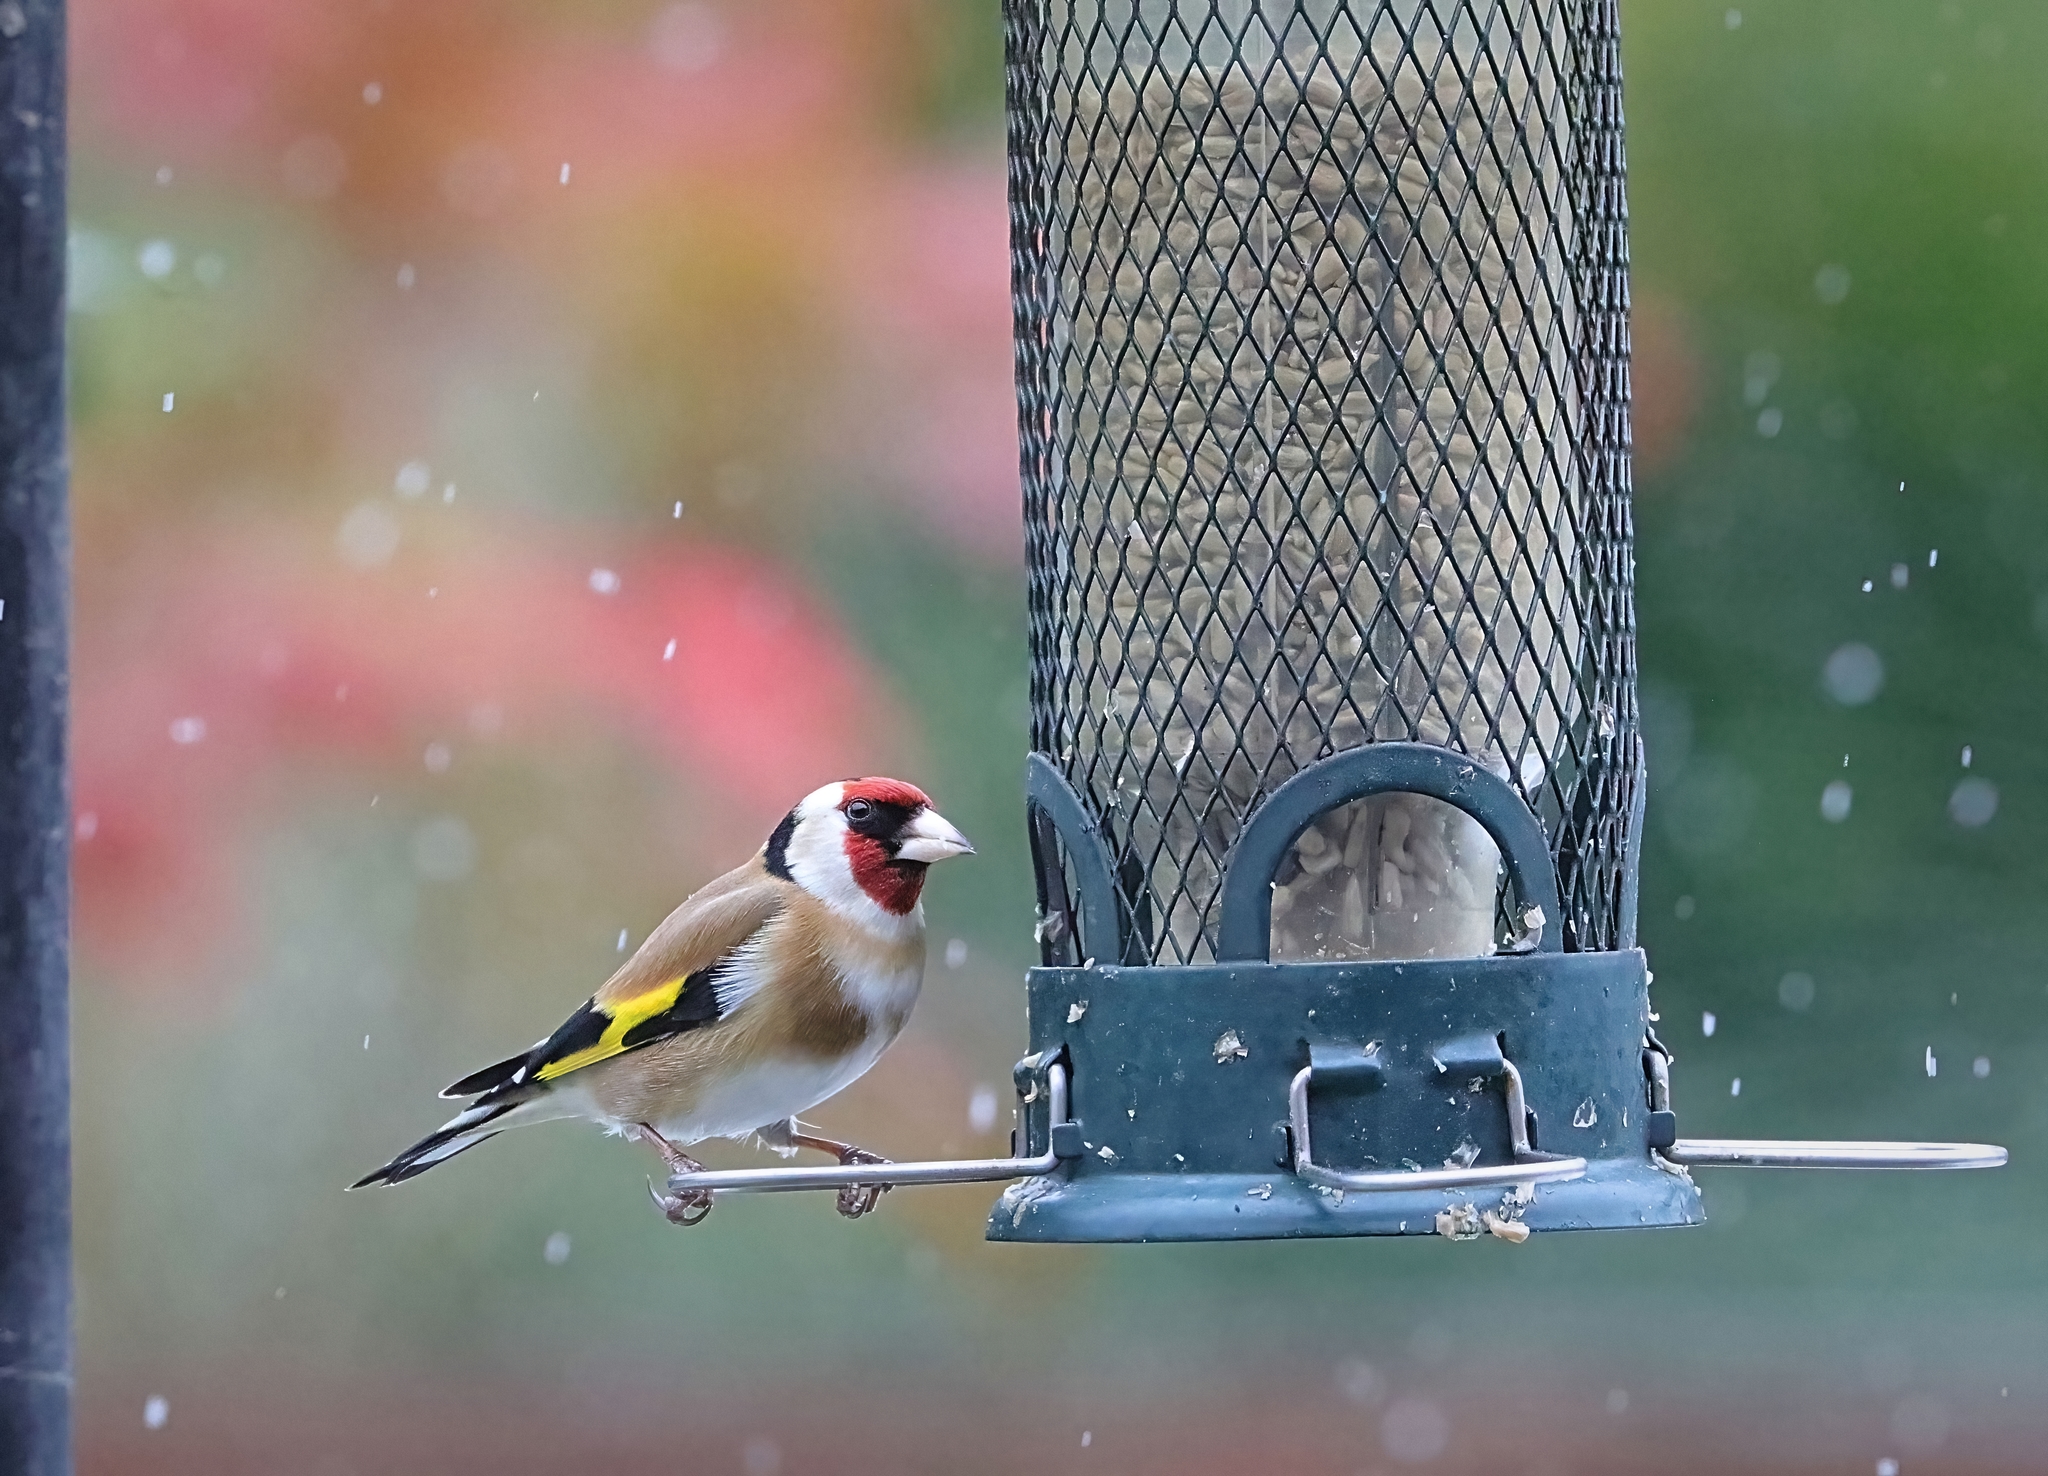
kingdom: Animalia
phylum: Chordata
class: Aves
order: Passeriformes
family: Fringillidae
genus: Carduelis
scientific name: Carduelis carduelis
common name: European goldfinch
